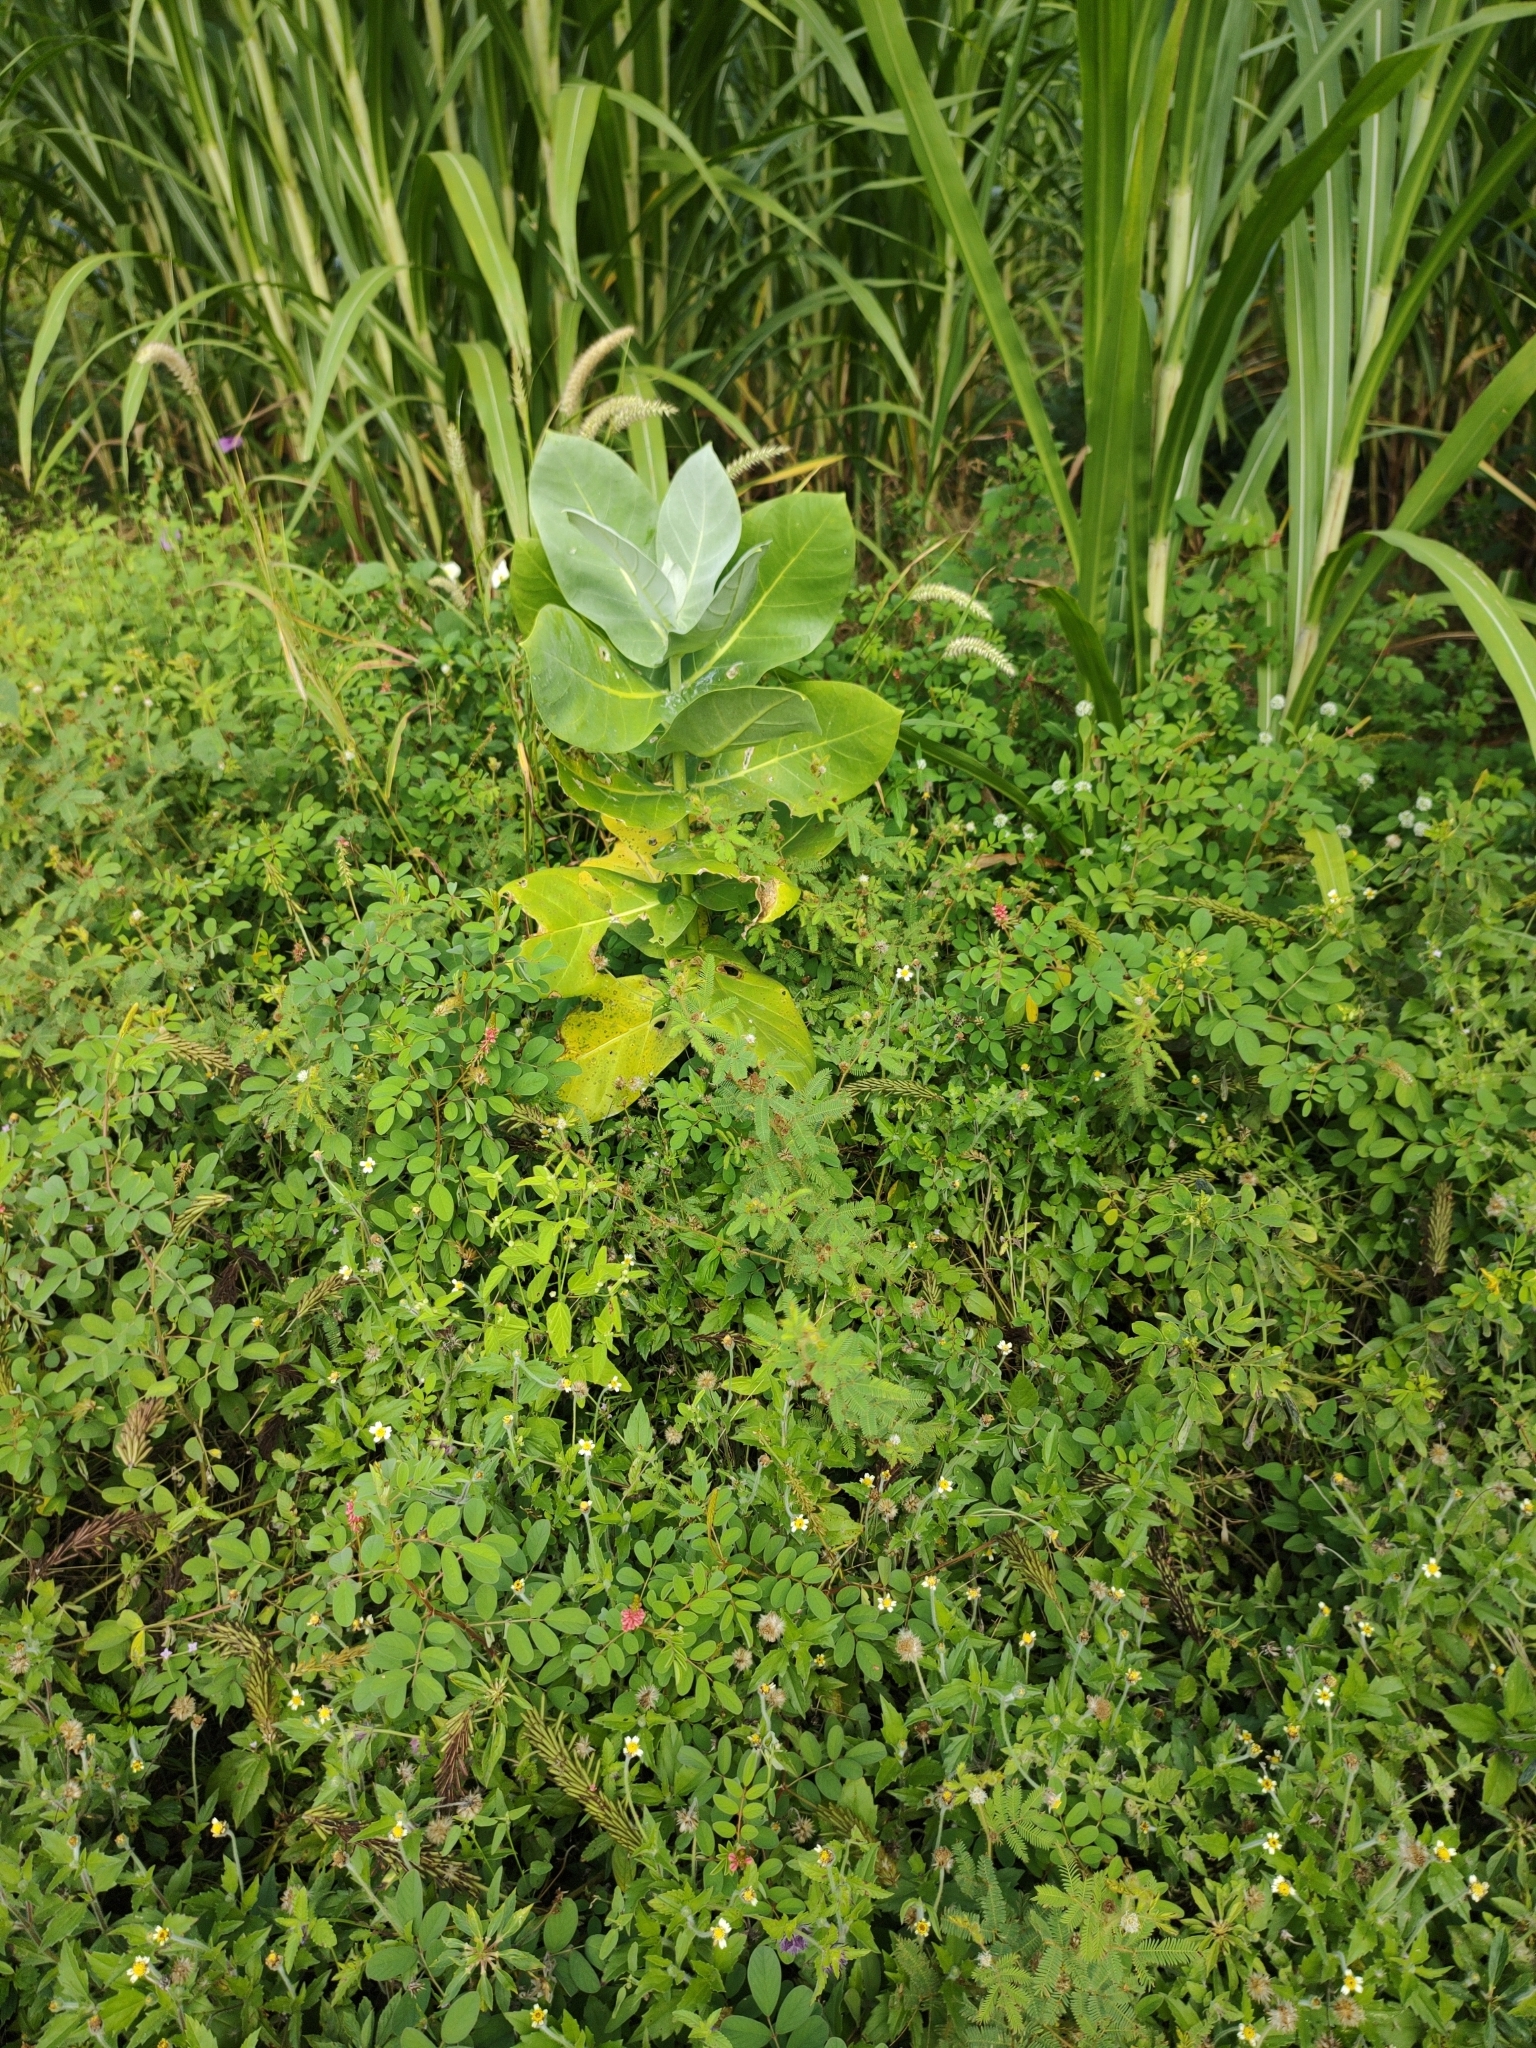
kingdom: Plantae
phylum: Tracheophyta
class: Magnoliopsida
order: Gentianales
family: Apocynaceae
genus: Calotropis
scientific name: Calotropis procera
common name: Roostertree
